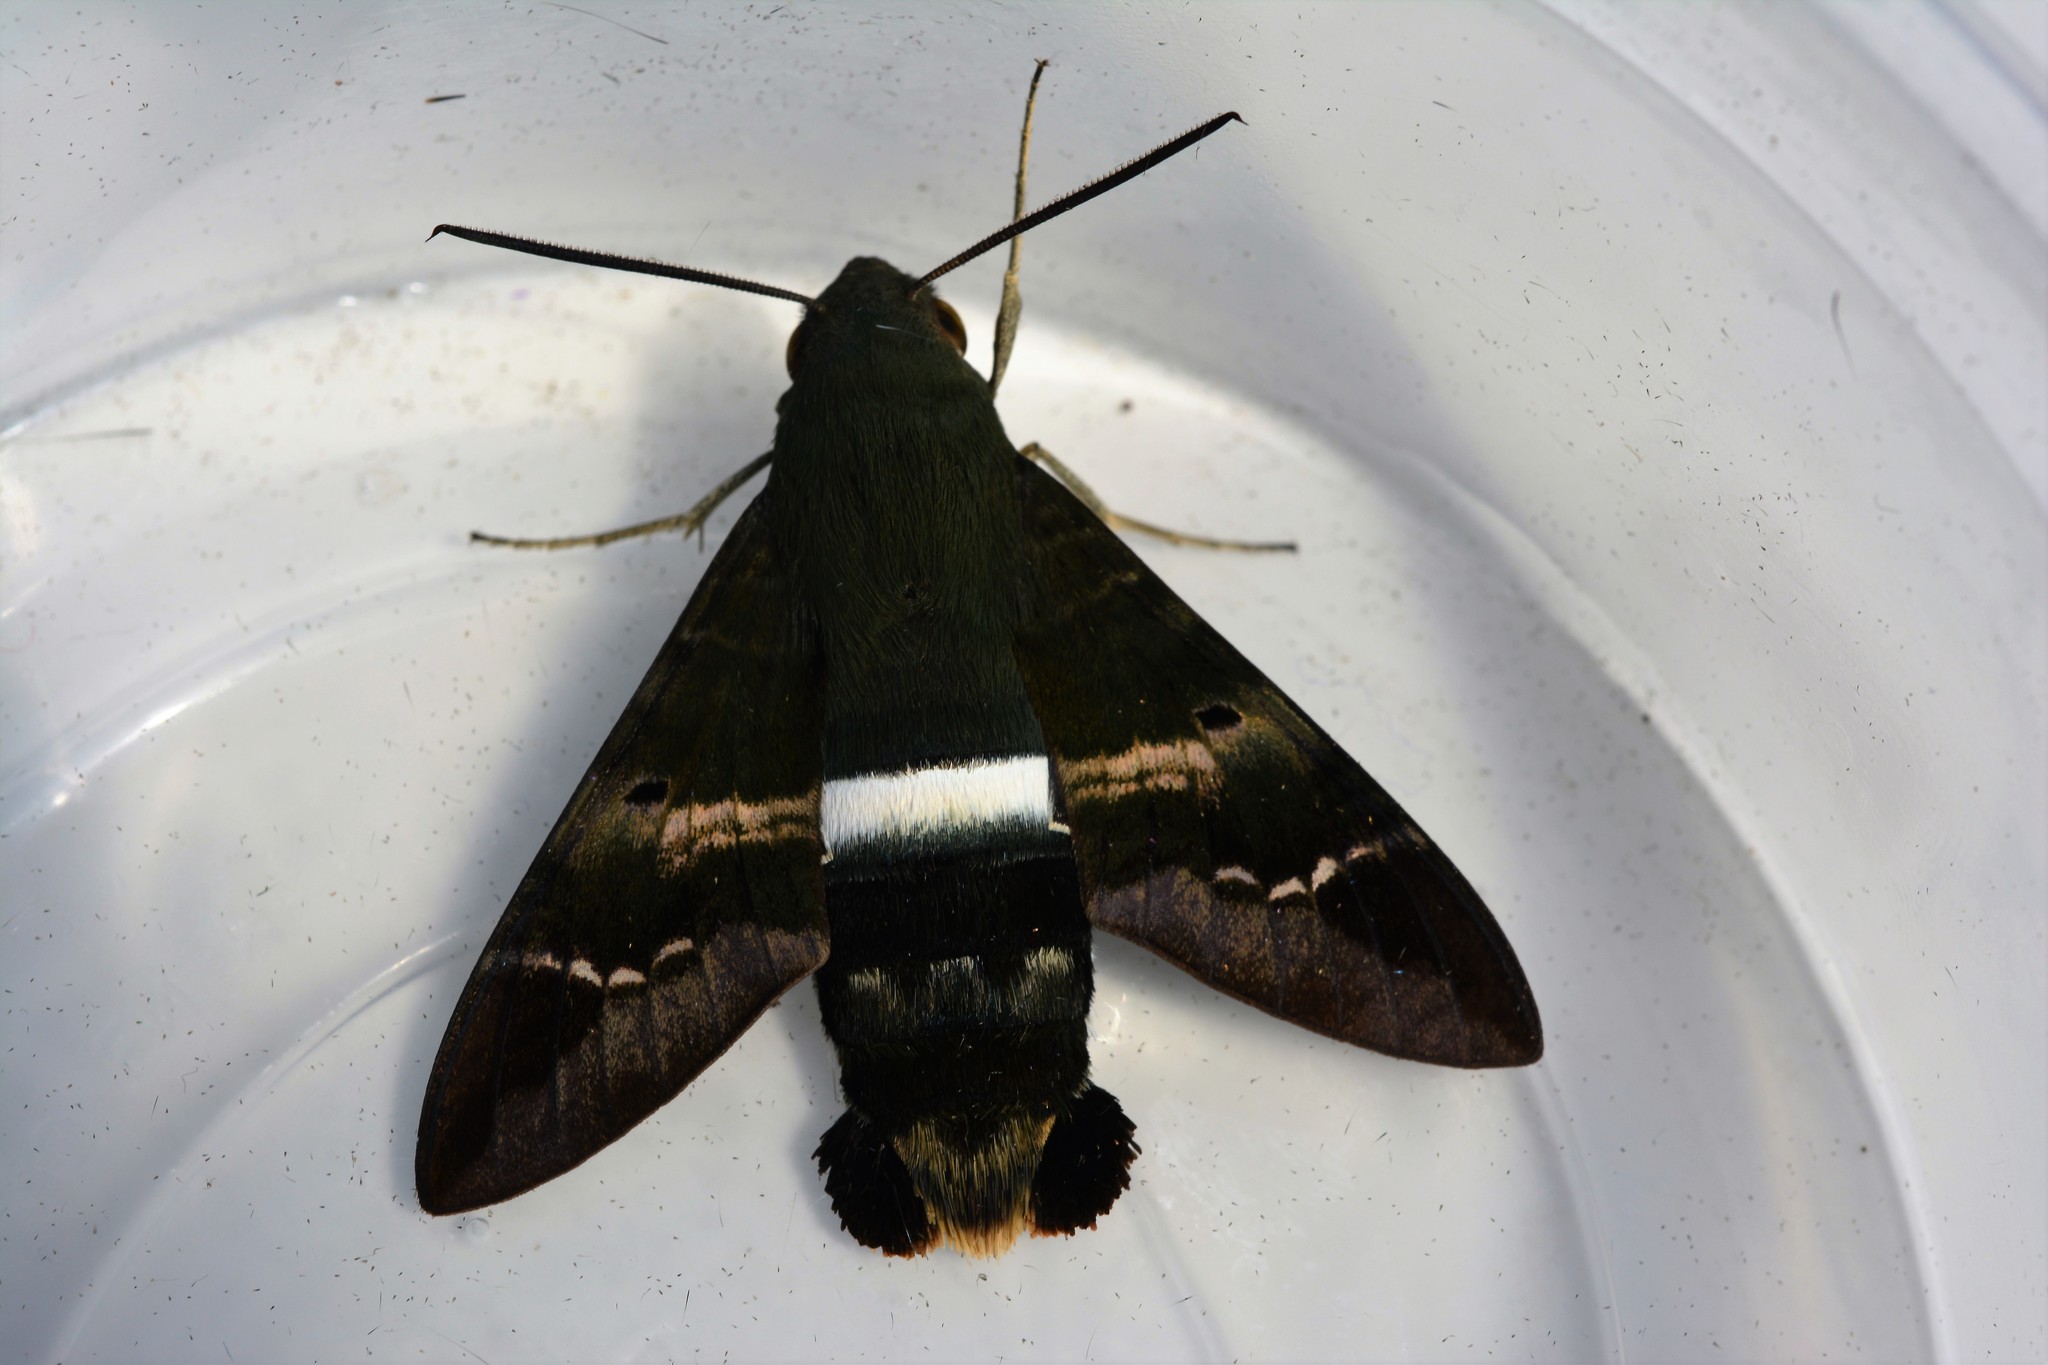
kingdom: Animalia
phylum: Arthropoda
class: Insecta
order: Lepidoptera
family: Sphingidae
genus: Aellopos
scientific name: Aellopos titan
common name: Titan sphinx
